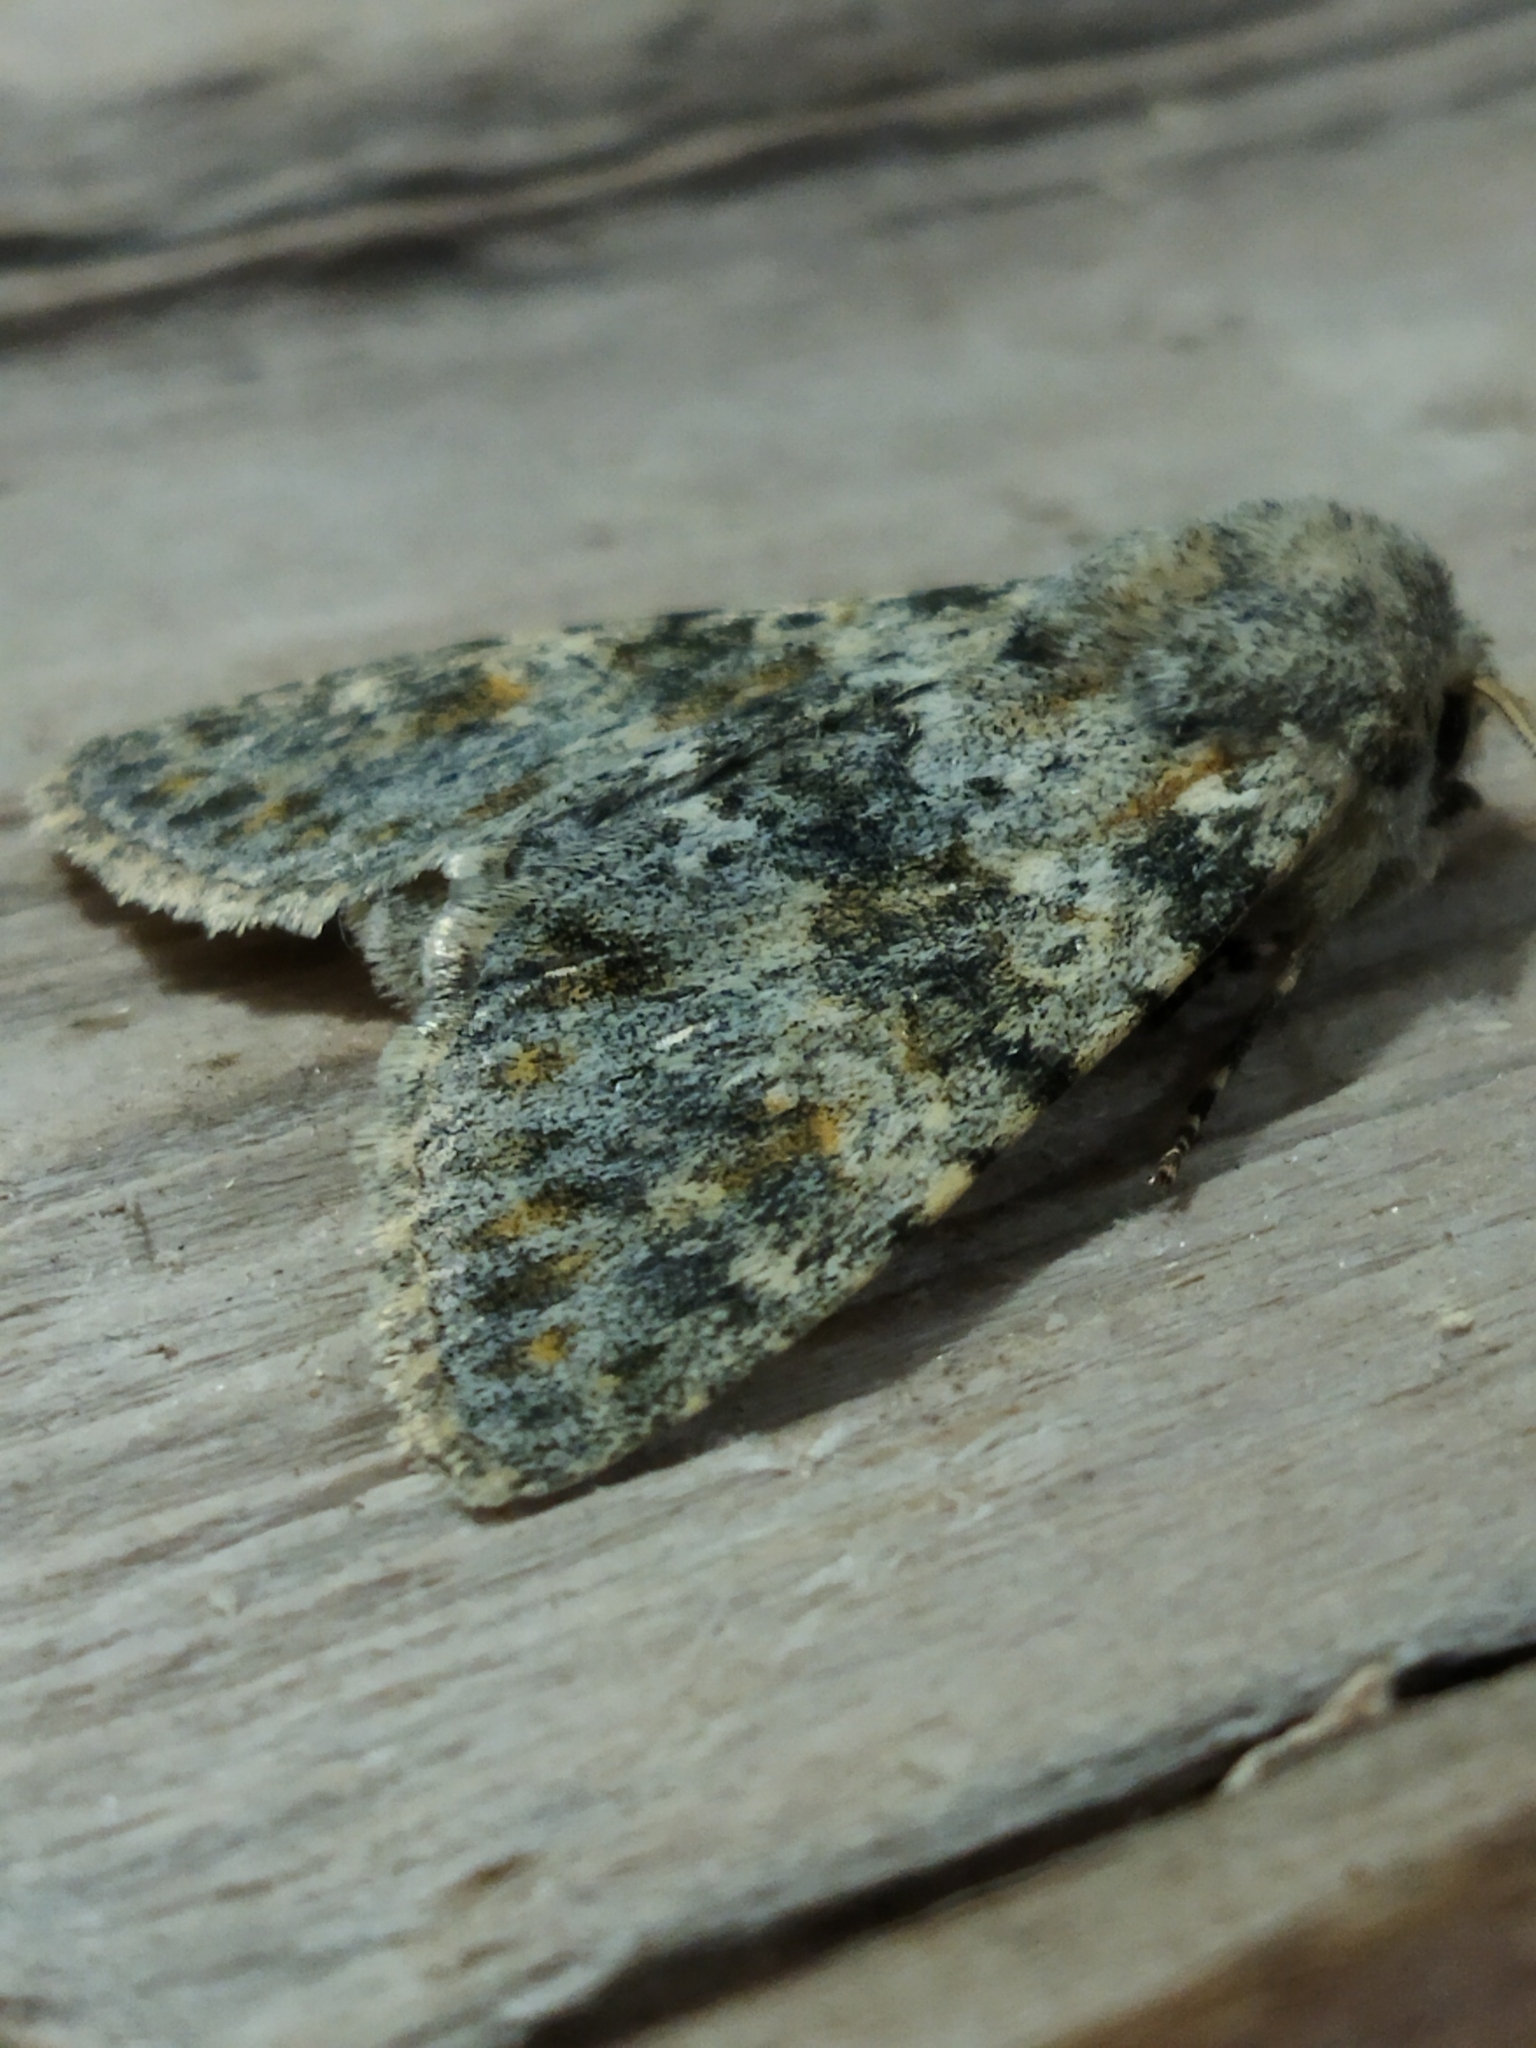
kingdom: Animalia
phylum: Arthropoda
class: Insecta
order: Lepidoptera
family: Noctuidae
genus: Polymixis
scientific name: Polymixis rufocincta
